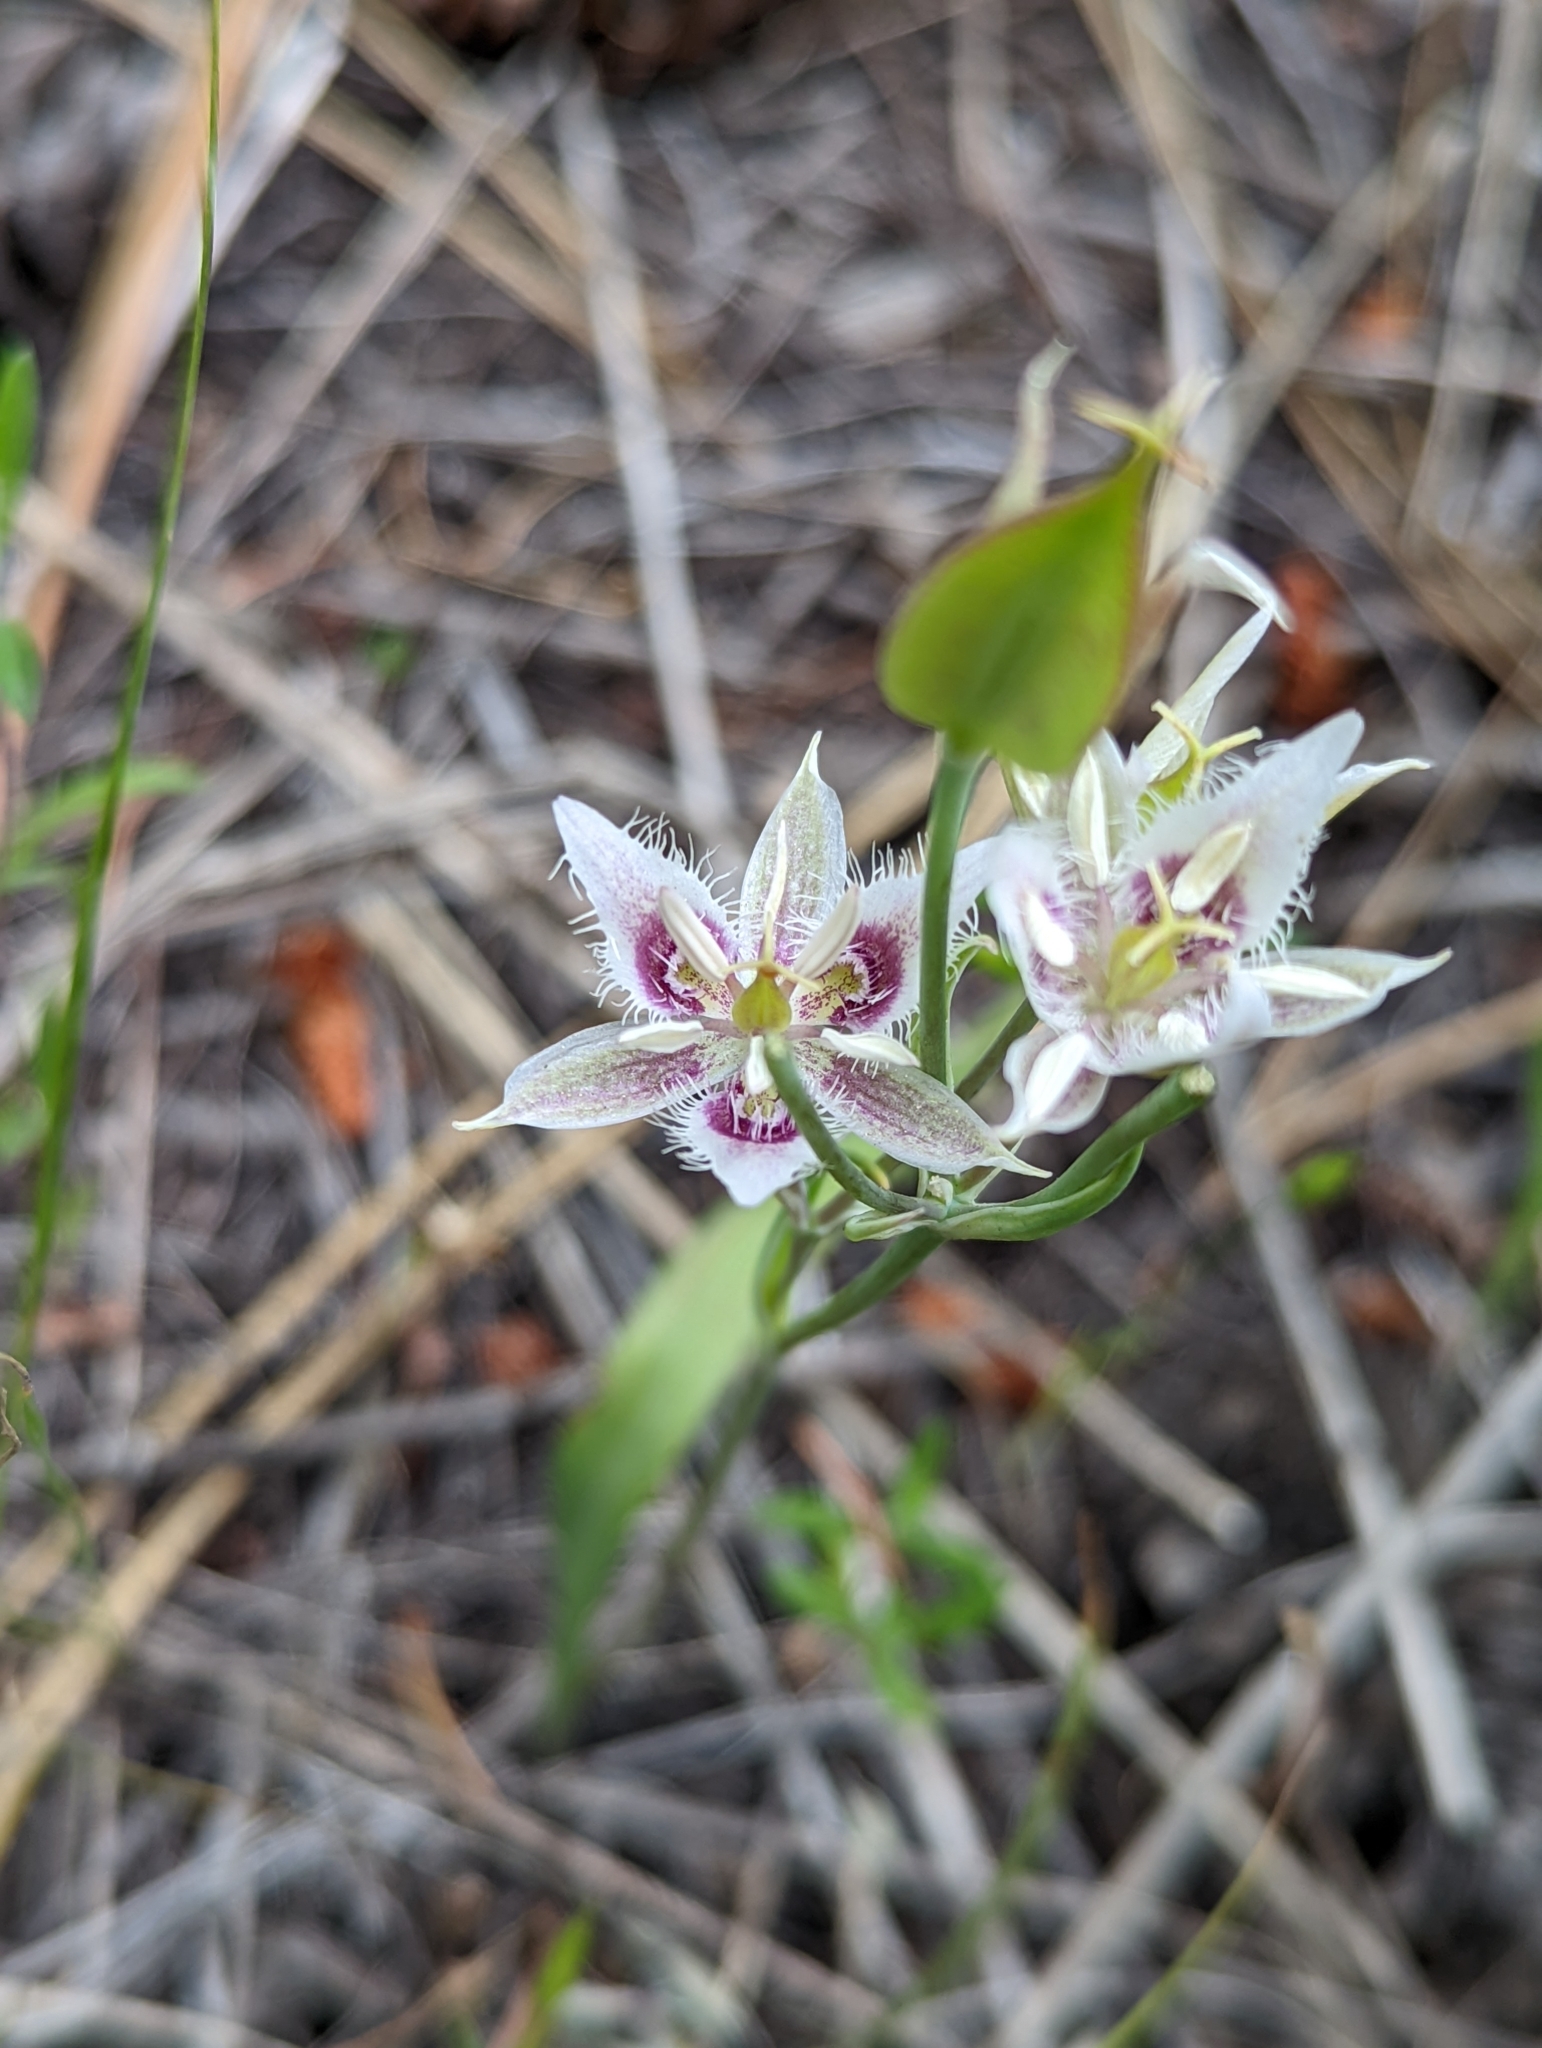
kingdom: Plantae
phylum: Tracheophyta
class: Liliopsida
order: Liliales
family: Liliaceae
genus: Calochortus
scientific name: Calochortus lyallii
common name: Lyall's mariposa lily
